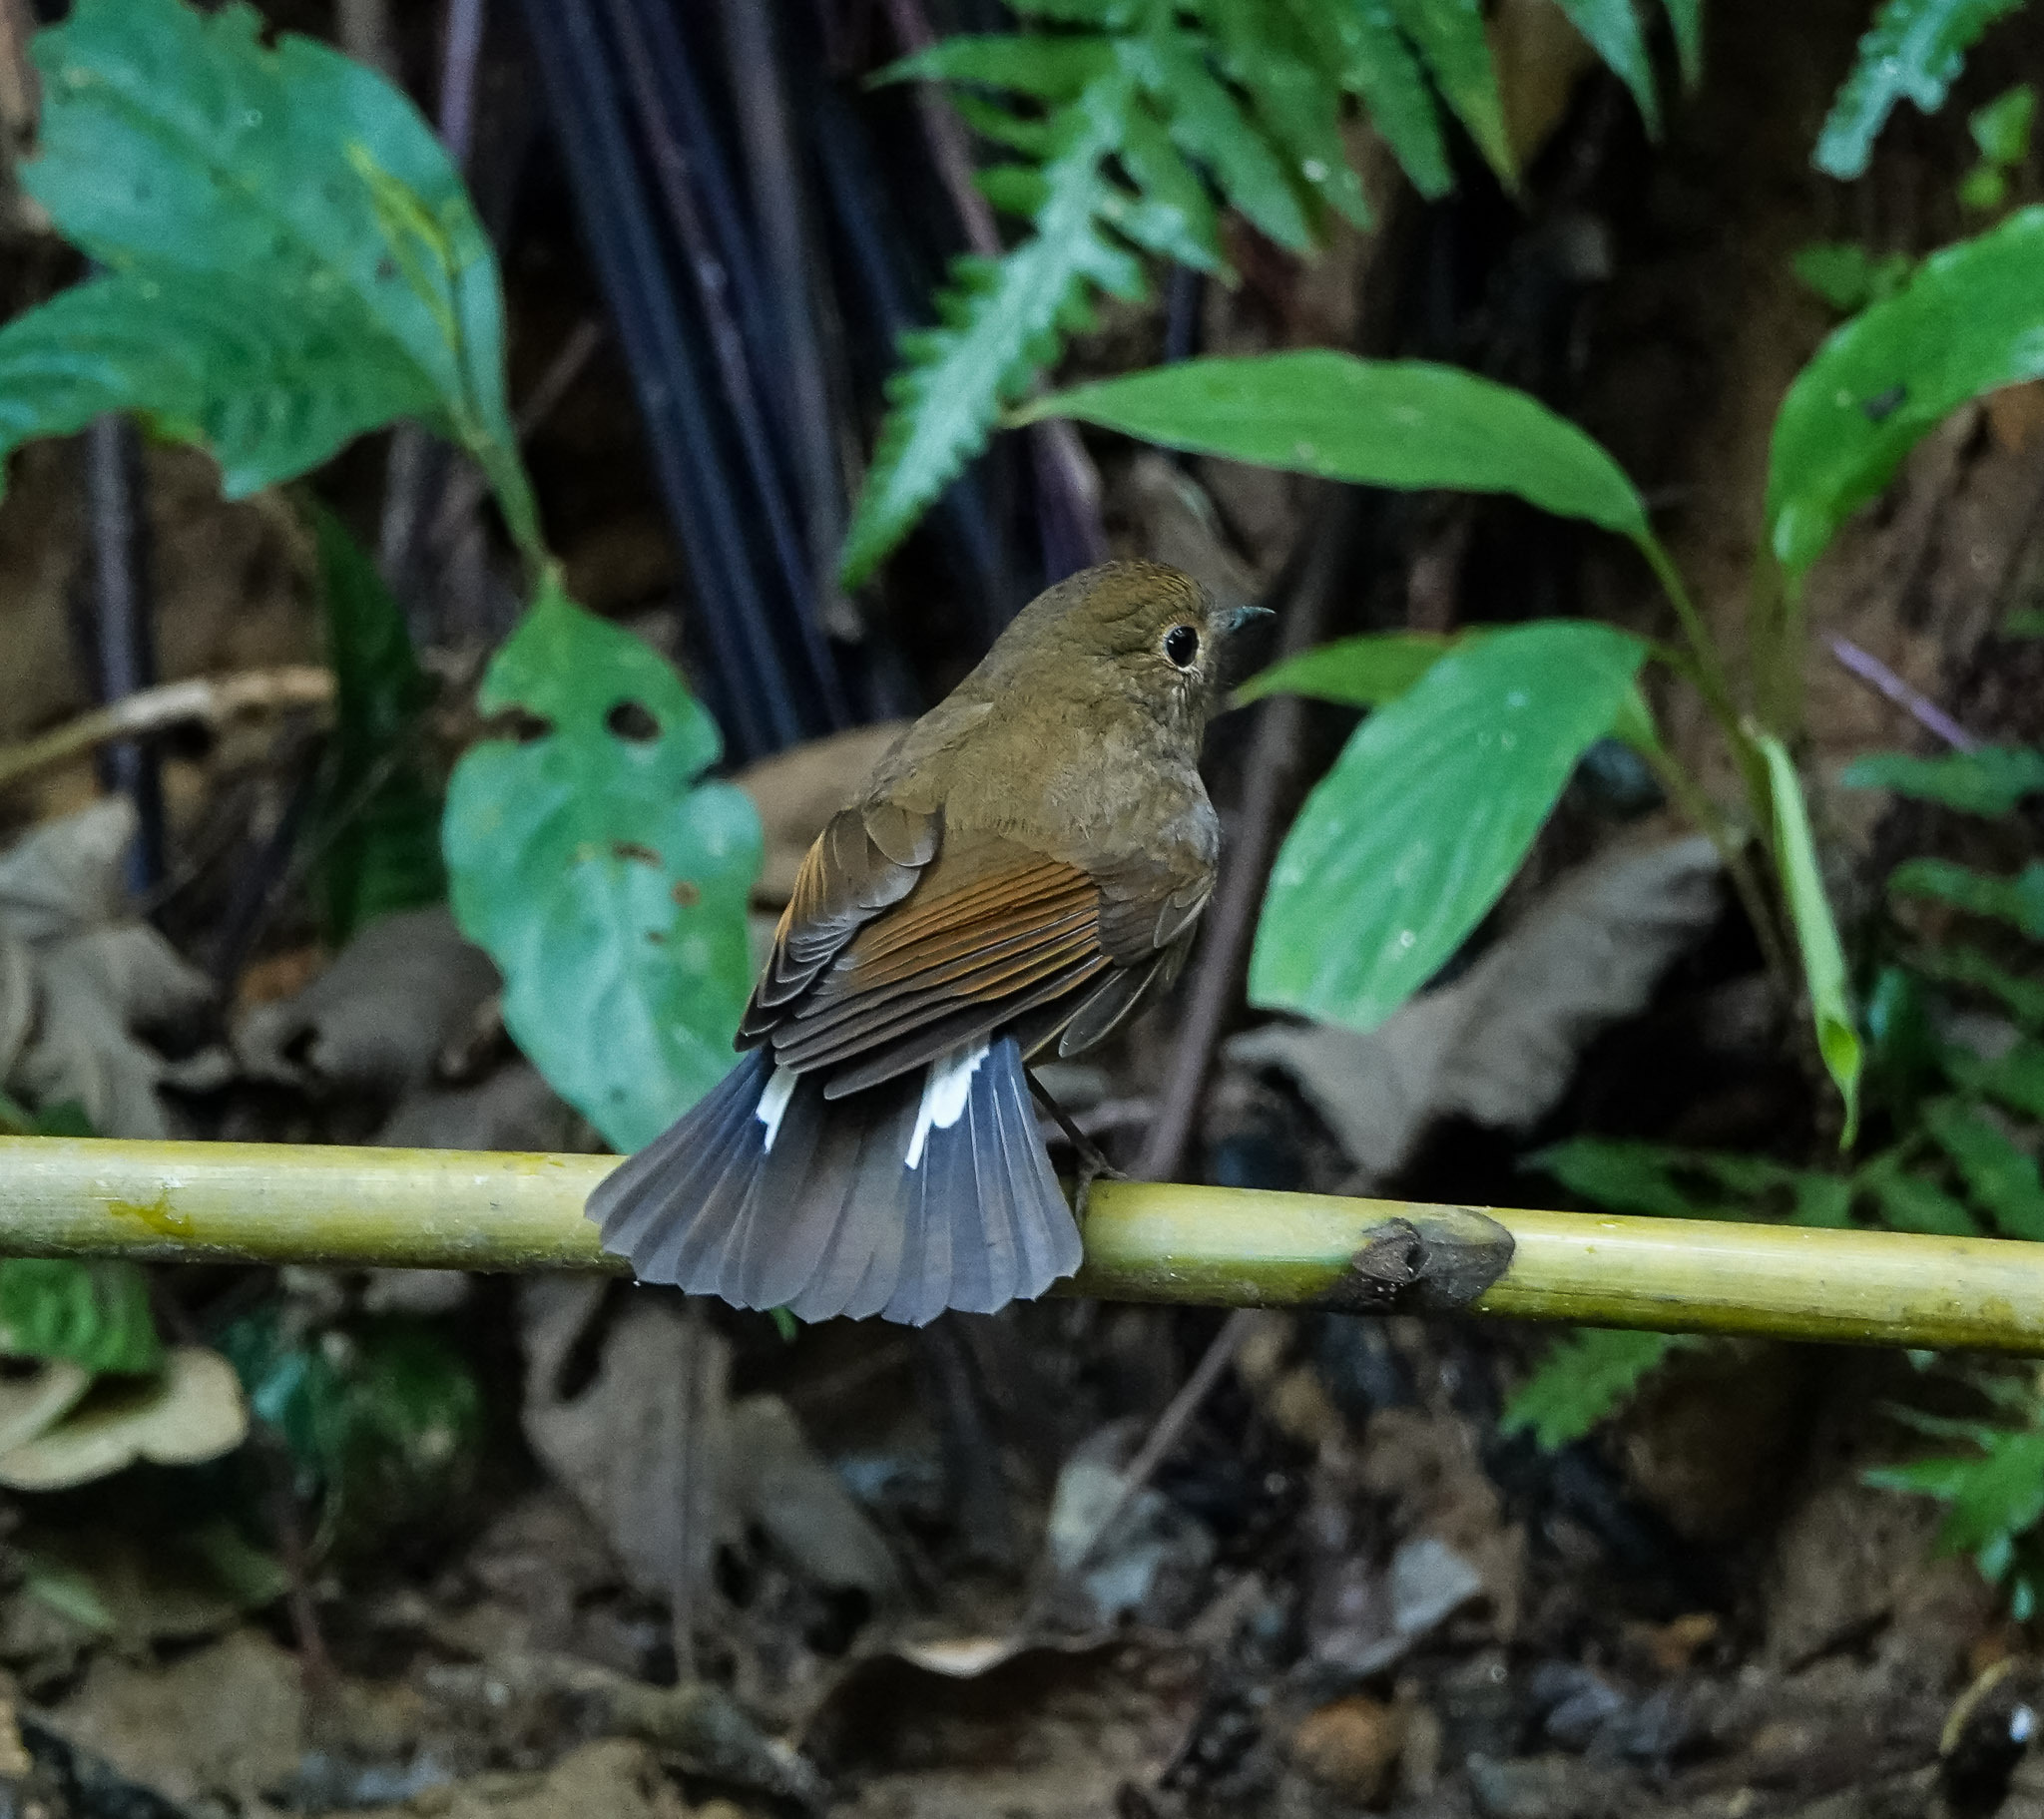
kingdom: Animalia
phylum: Chordata
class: Aves
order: Passeriformes
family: Muscicapidae
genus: Myiomela
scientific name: Myiomela leucura
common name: White-tailed robin
